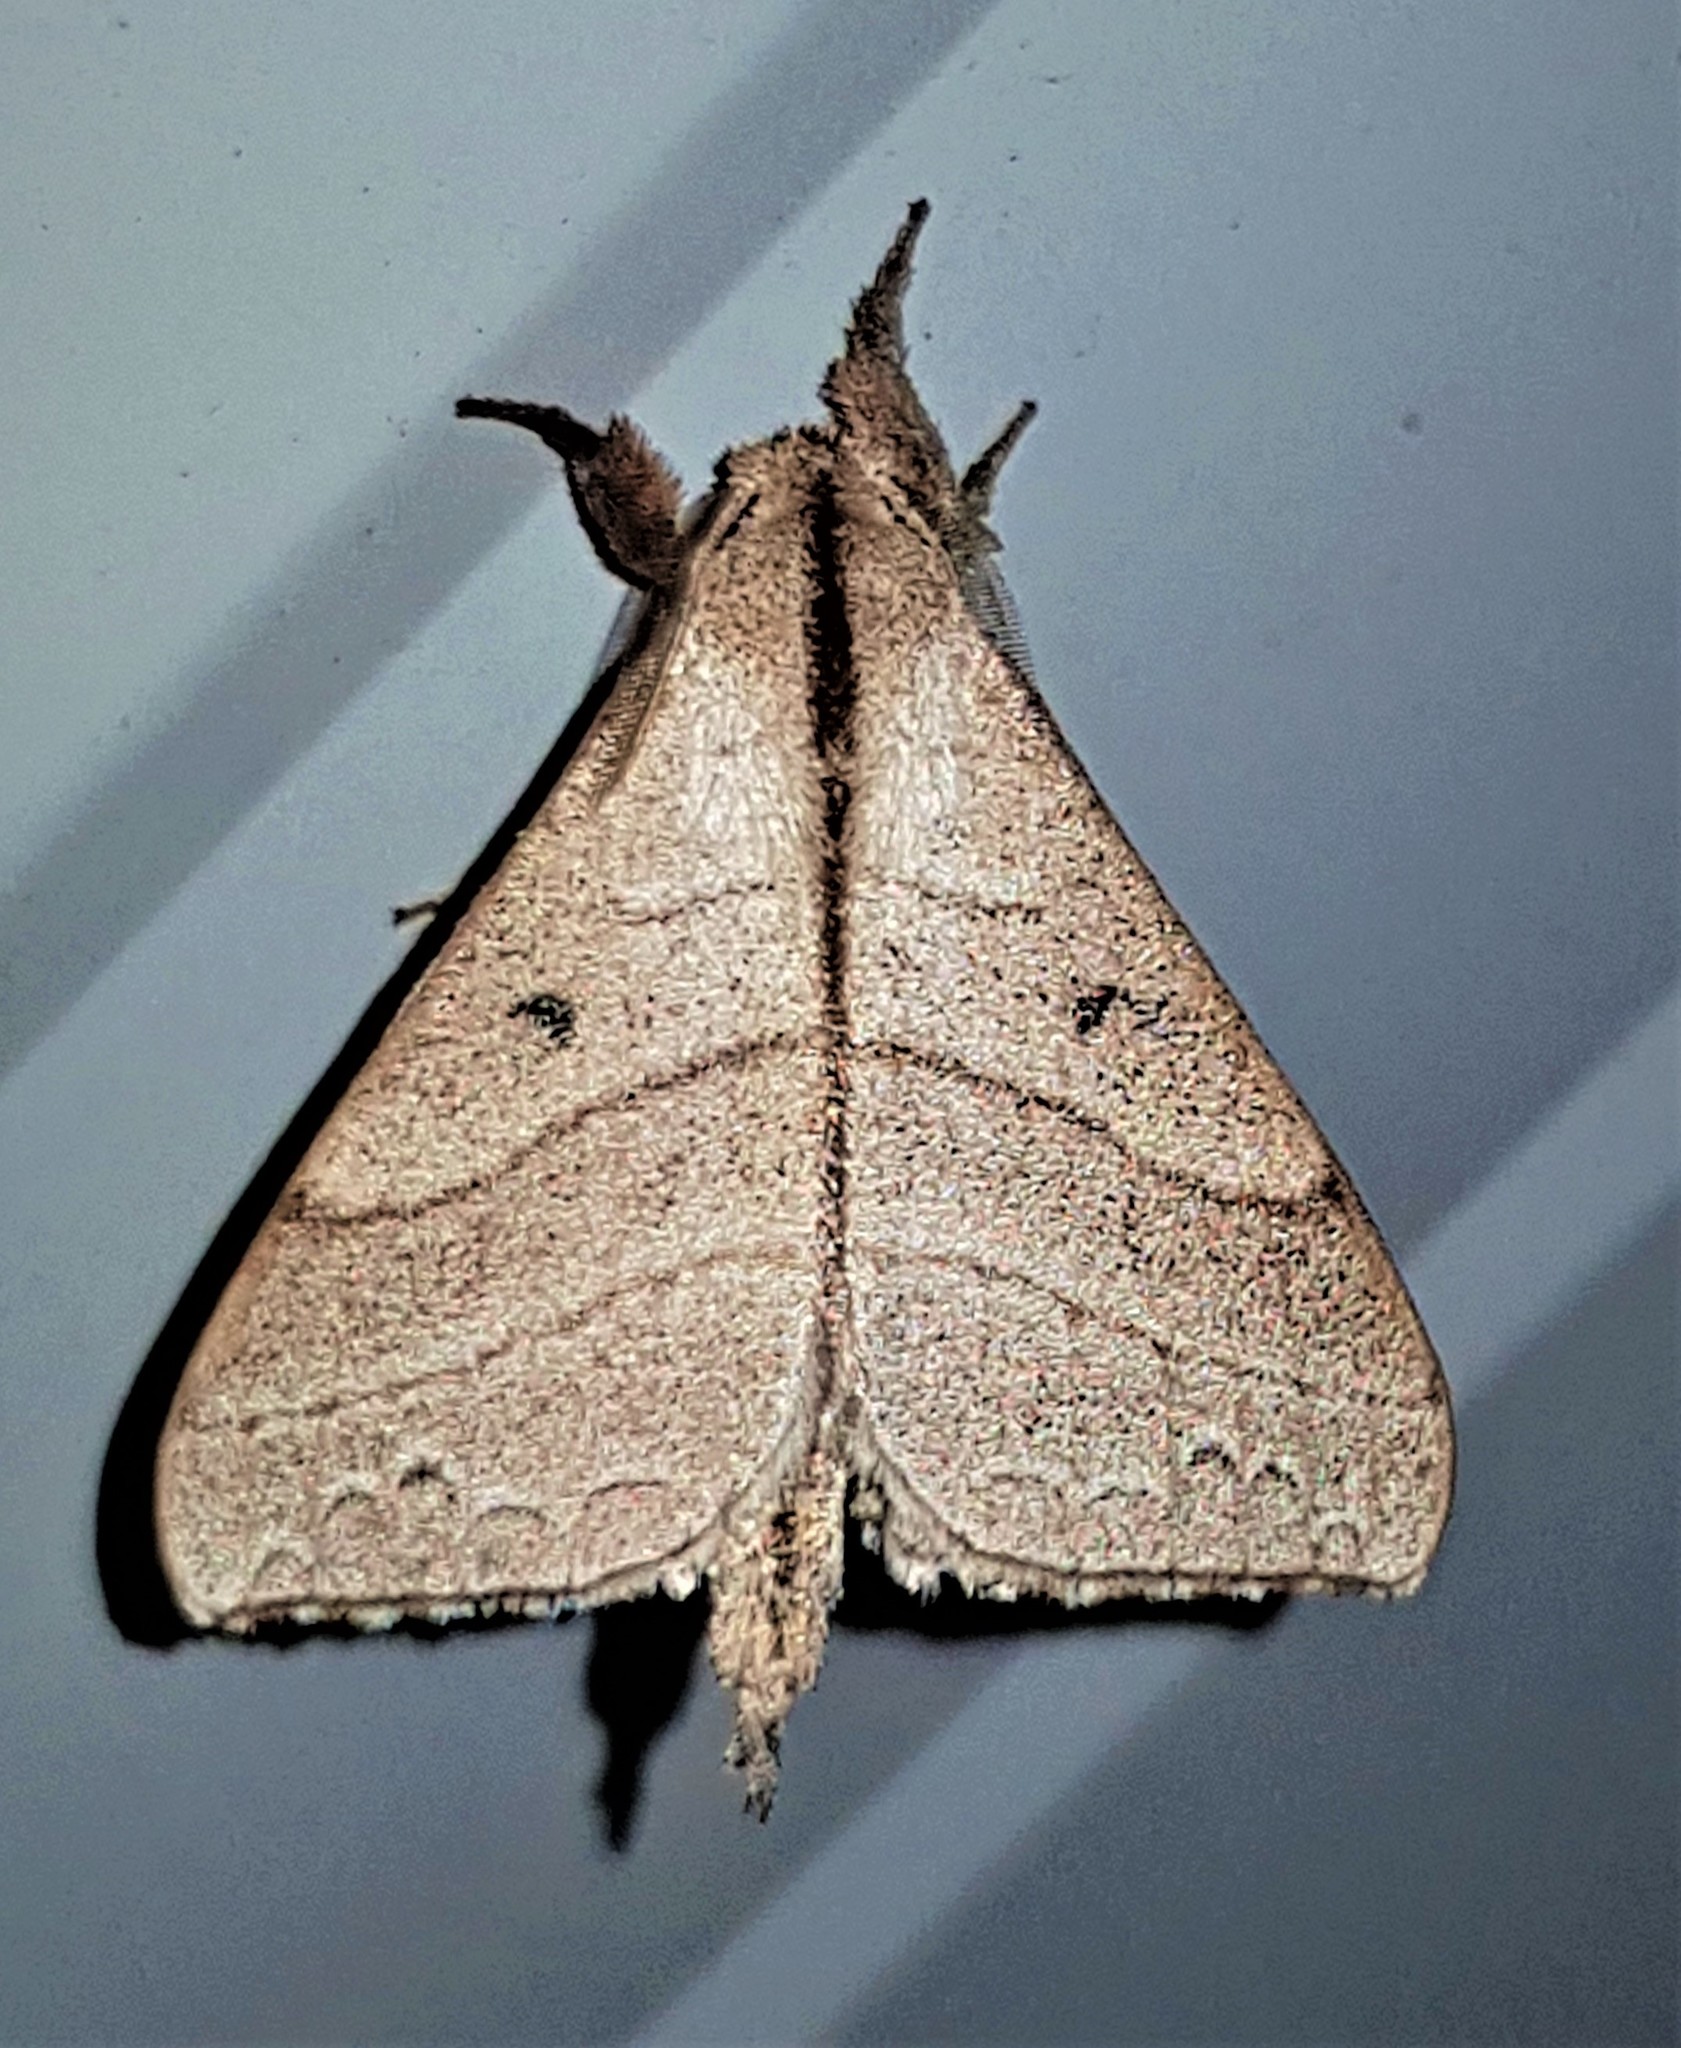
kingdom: Animalia
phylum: Arthropoda
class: Insecta
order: Lepidoptera
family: Apatelodidae
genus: Drepatelodes
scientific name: Drepatelodes ostenta
